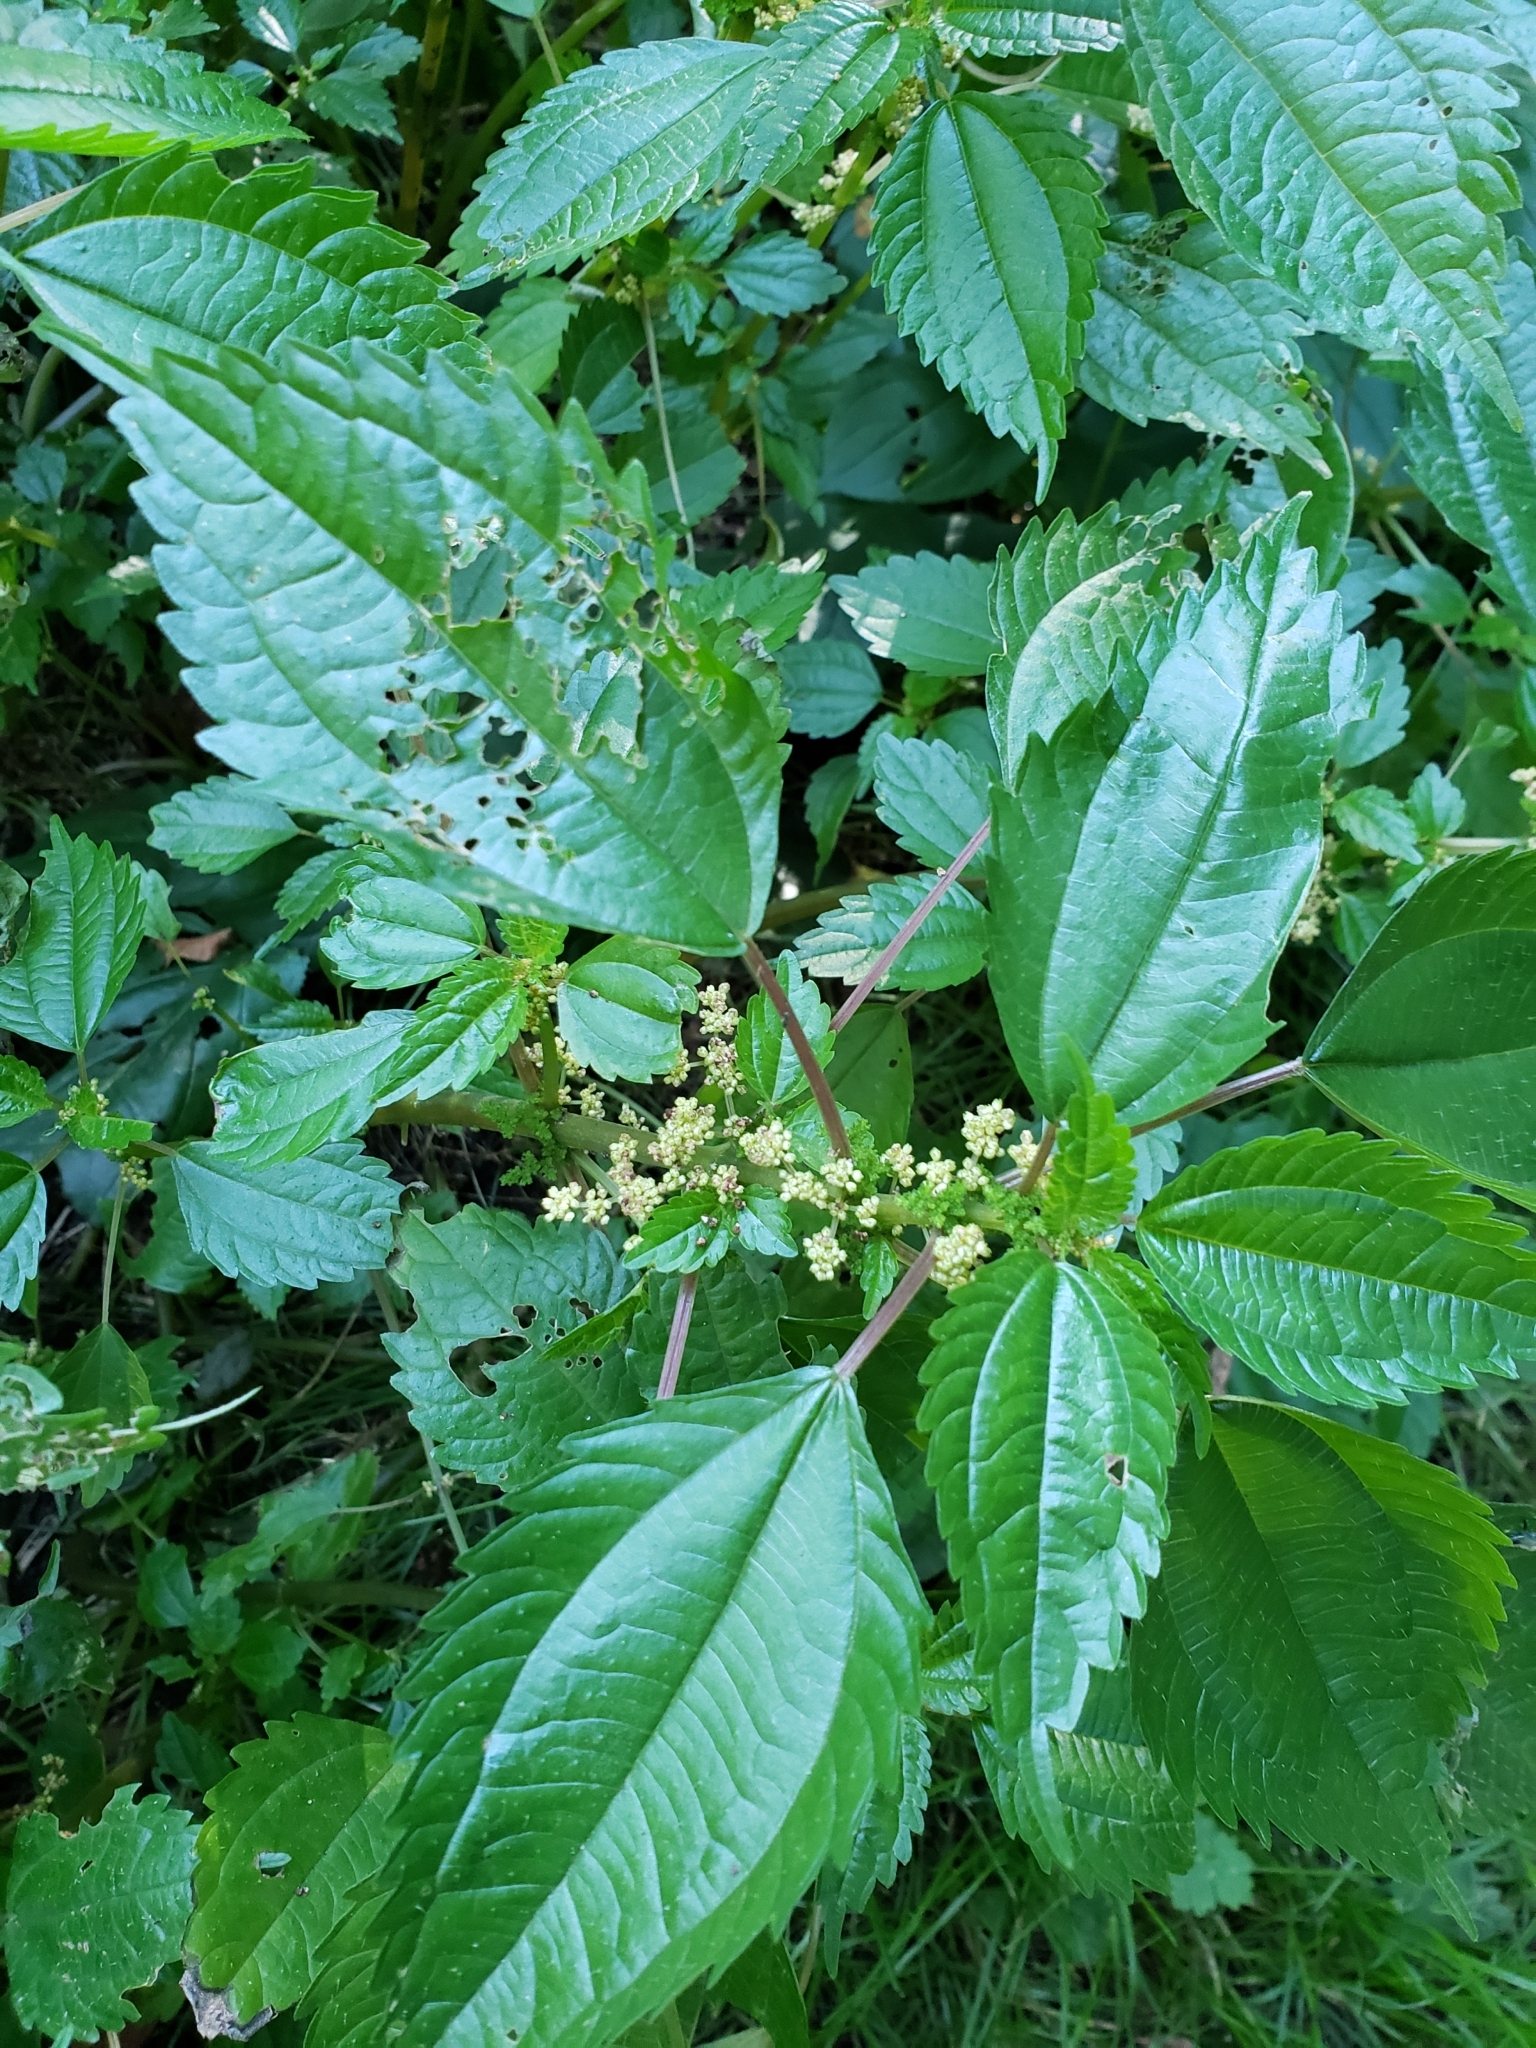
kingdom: Plantae
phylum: Tracheophyta
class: Magnoliopsida
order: Rosales
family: Urticaceae
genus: Pilea
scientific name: Pilea pumila
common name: Clearweed
